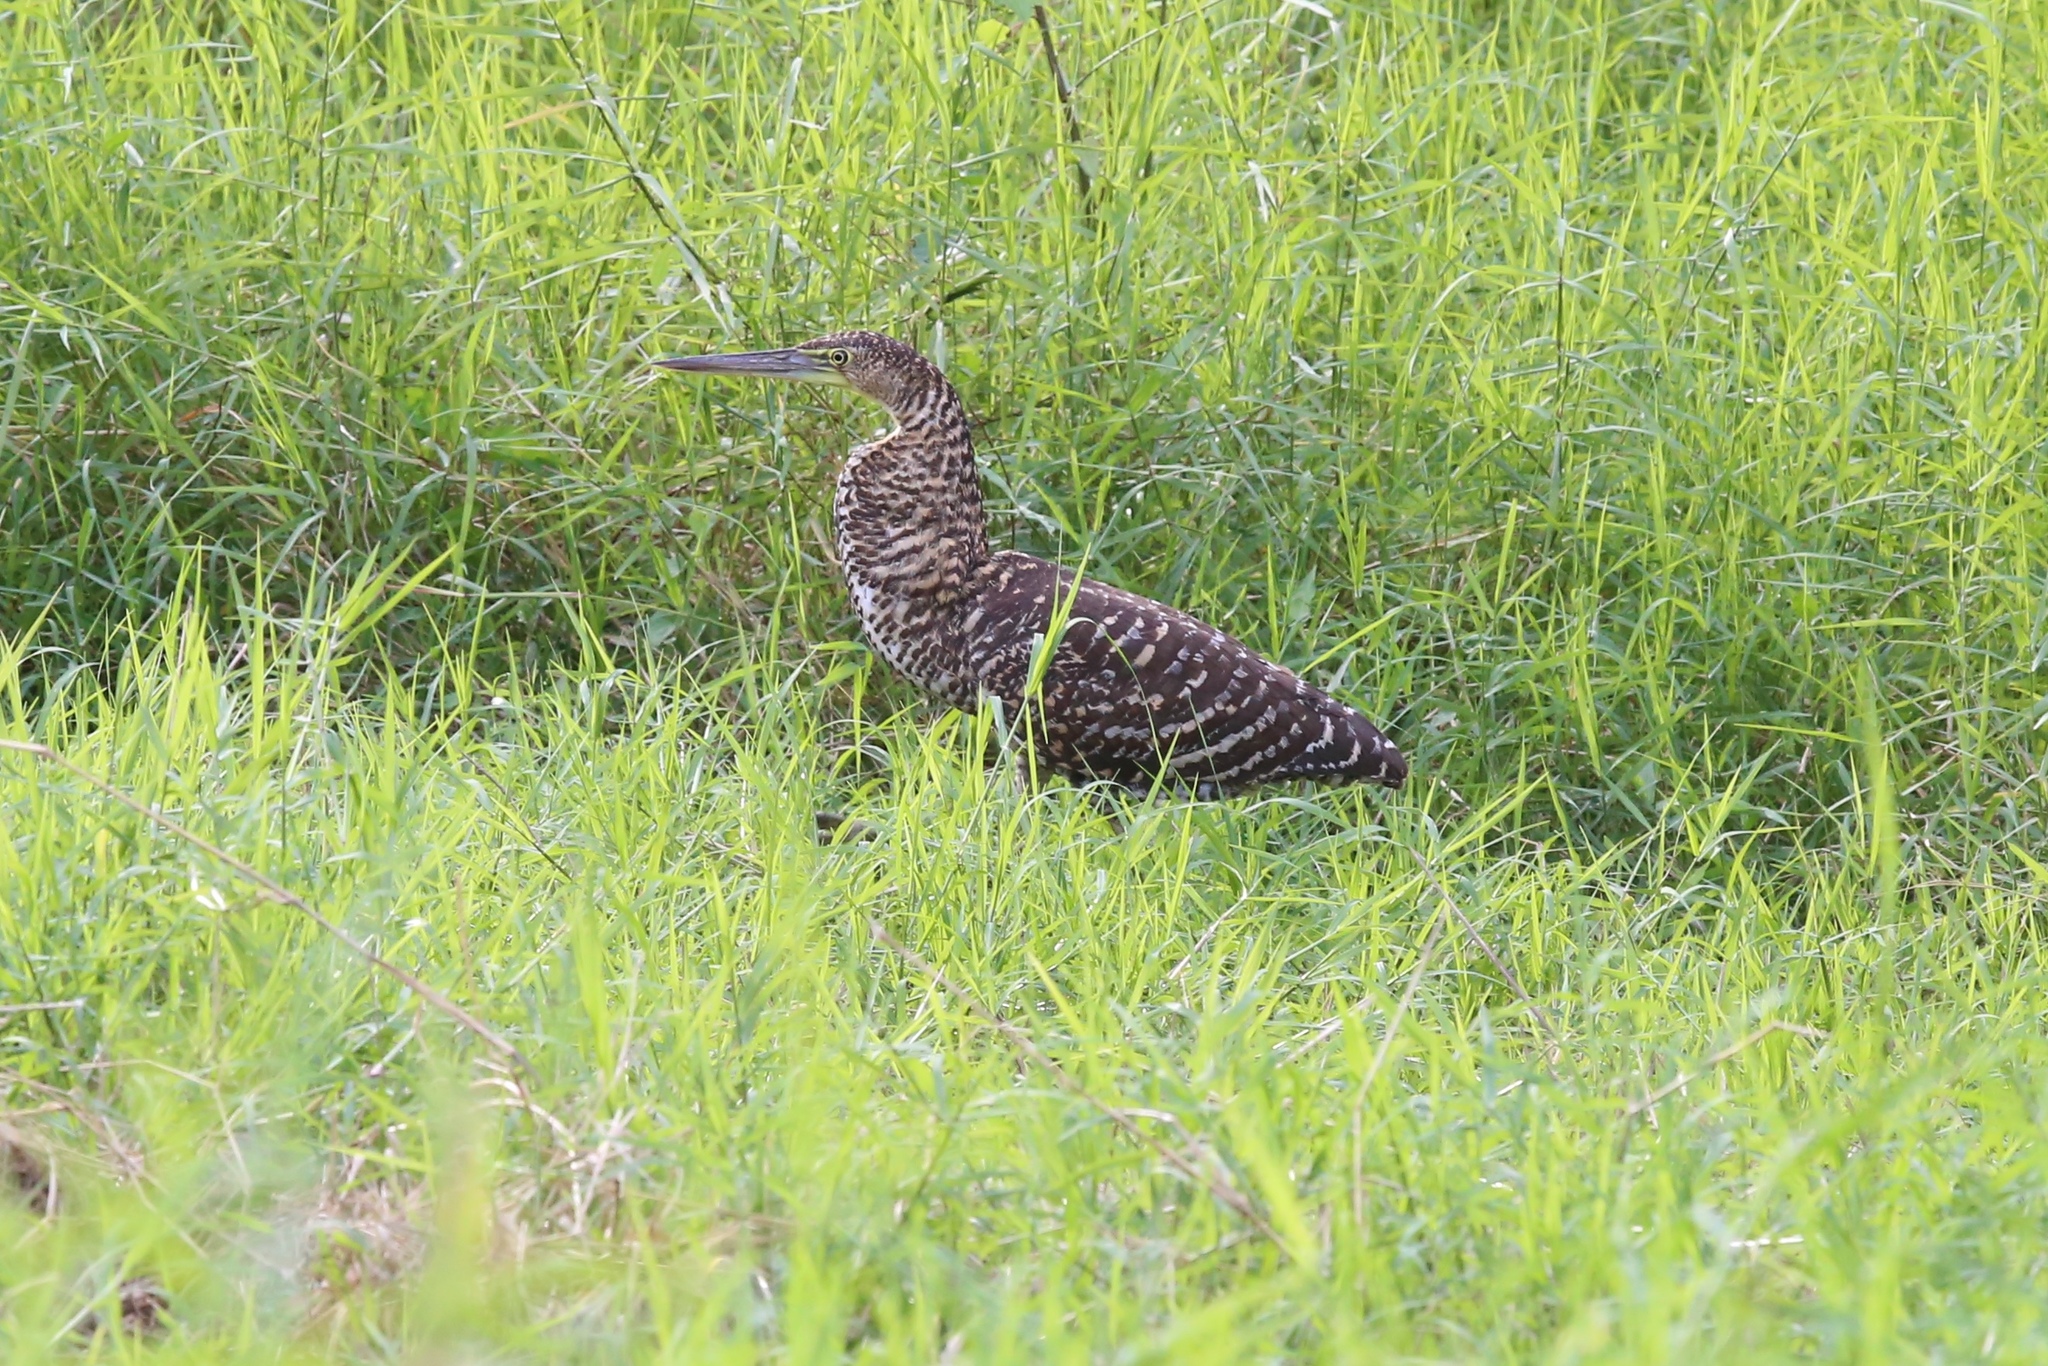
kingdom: Animalia
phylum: Chordata
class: Aves
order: Pelecaniformes
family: Ardeidae
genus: Tigrisoma
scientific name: Tigrisoma mexicanum
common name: Bare-throated tiger-heron
